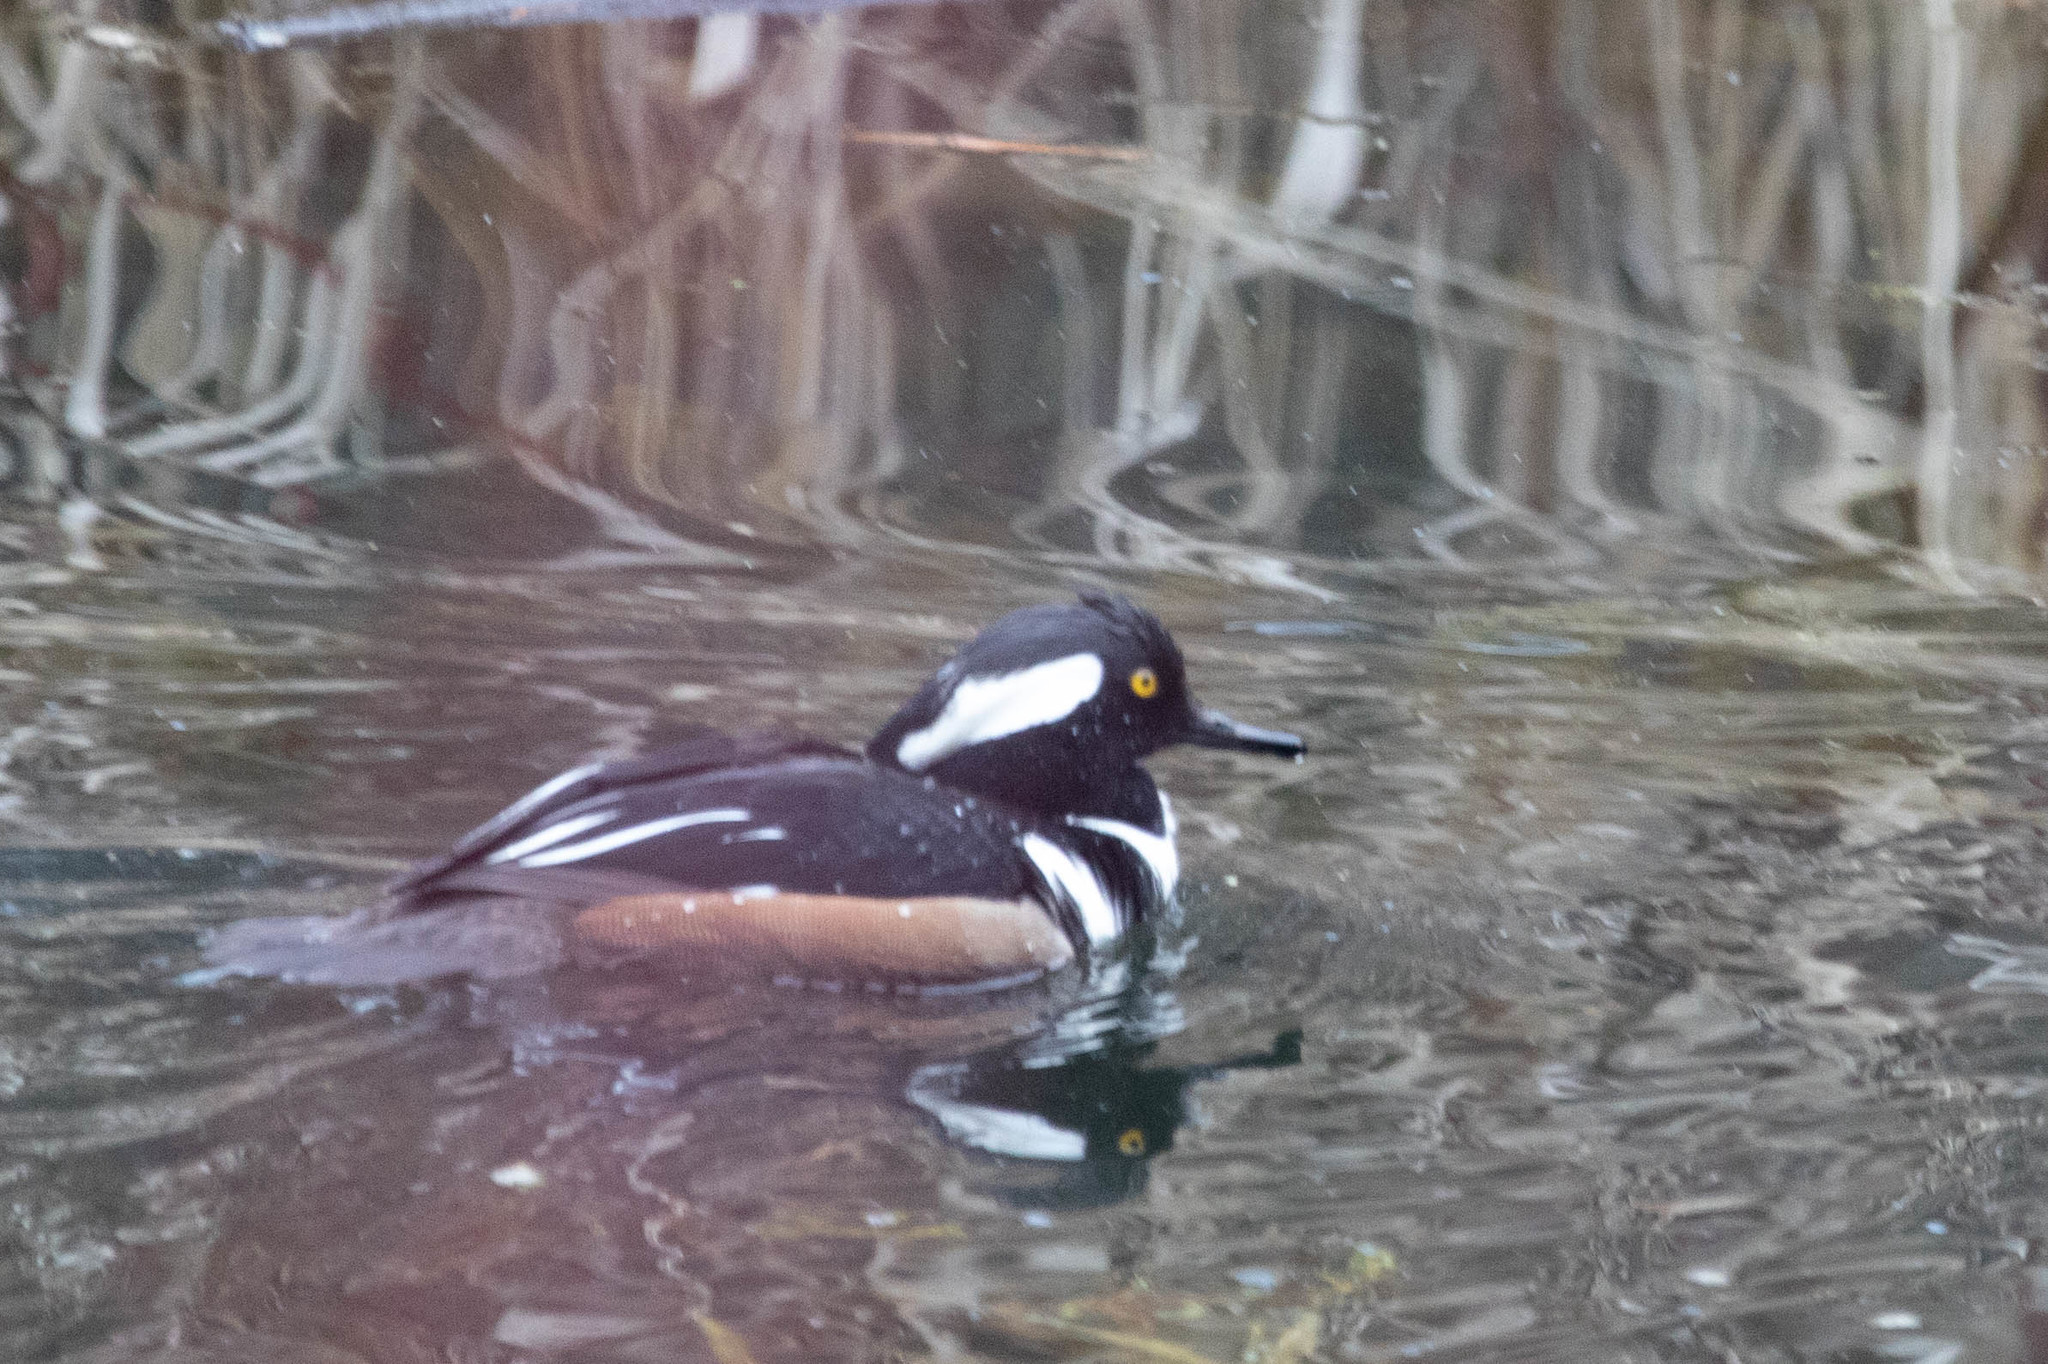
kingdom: Animalia
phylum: Chordata
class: Aves
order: Anseriformes
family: Anatidae
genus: Lophodytes
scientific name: Lophodytes cucullatus
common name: Hooded merganser
